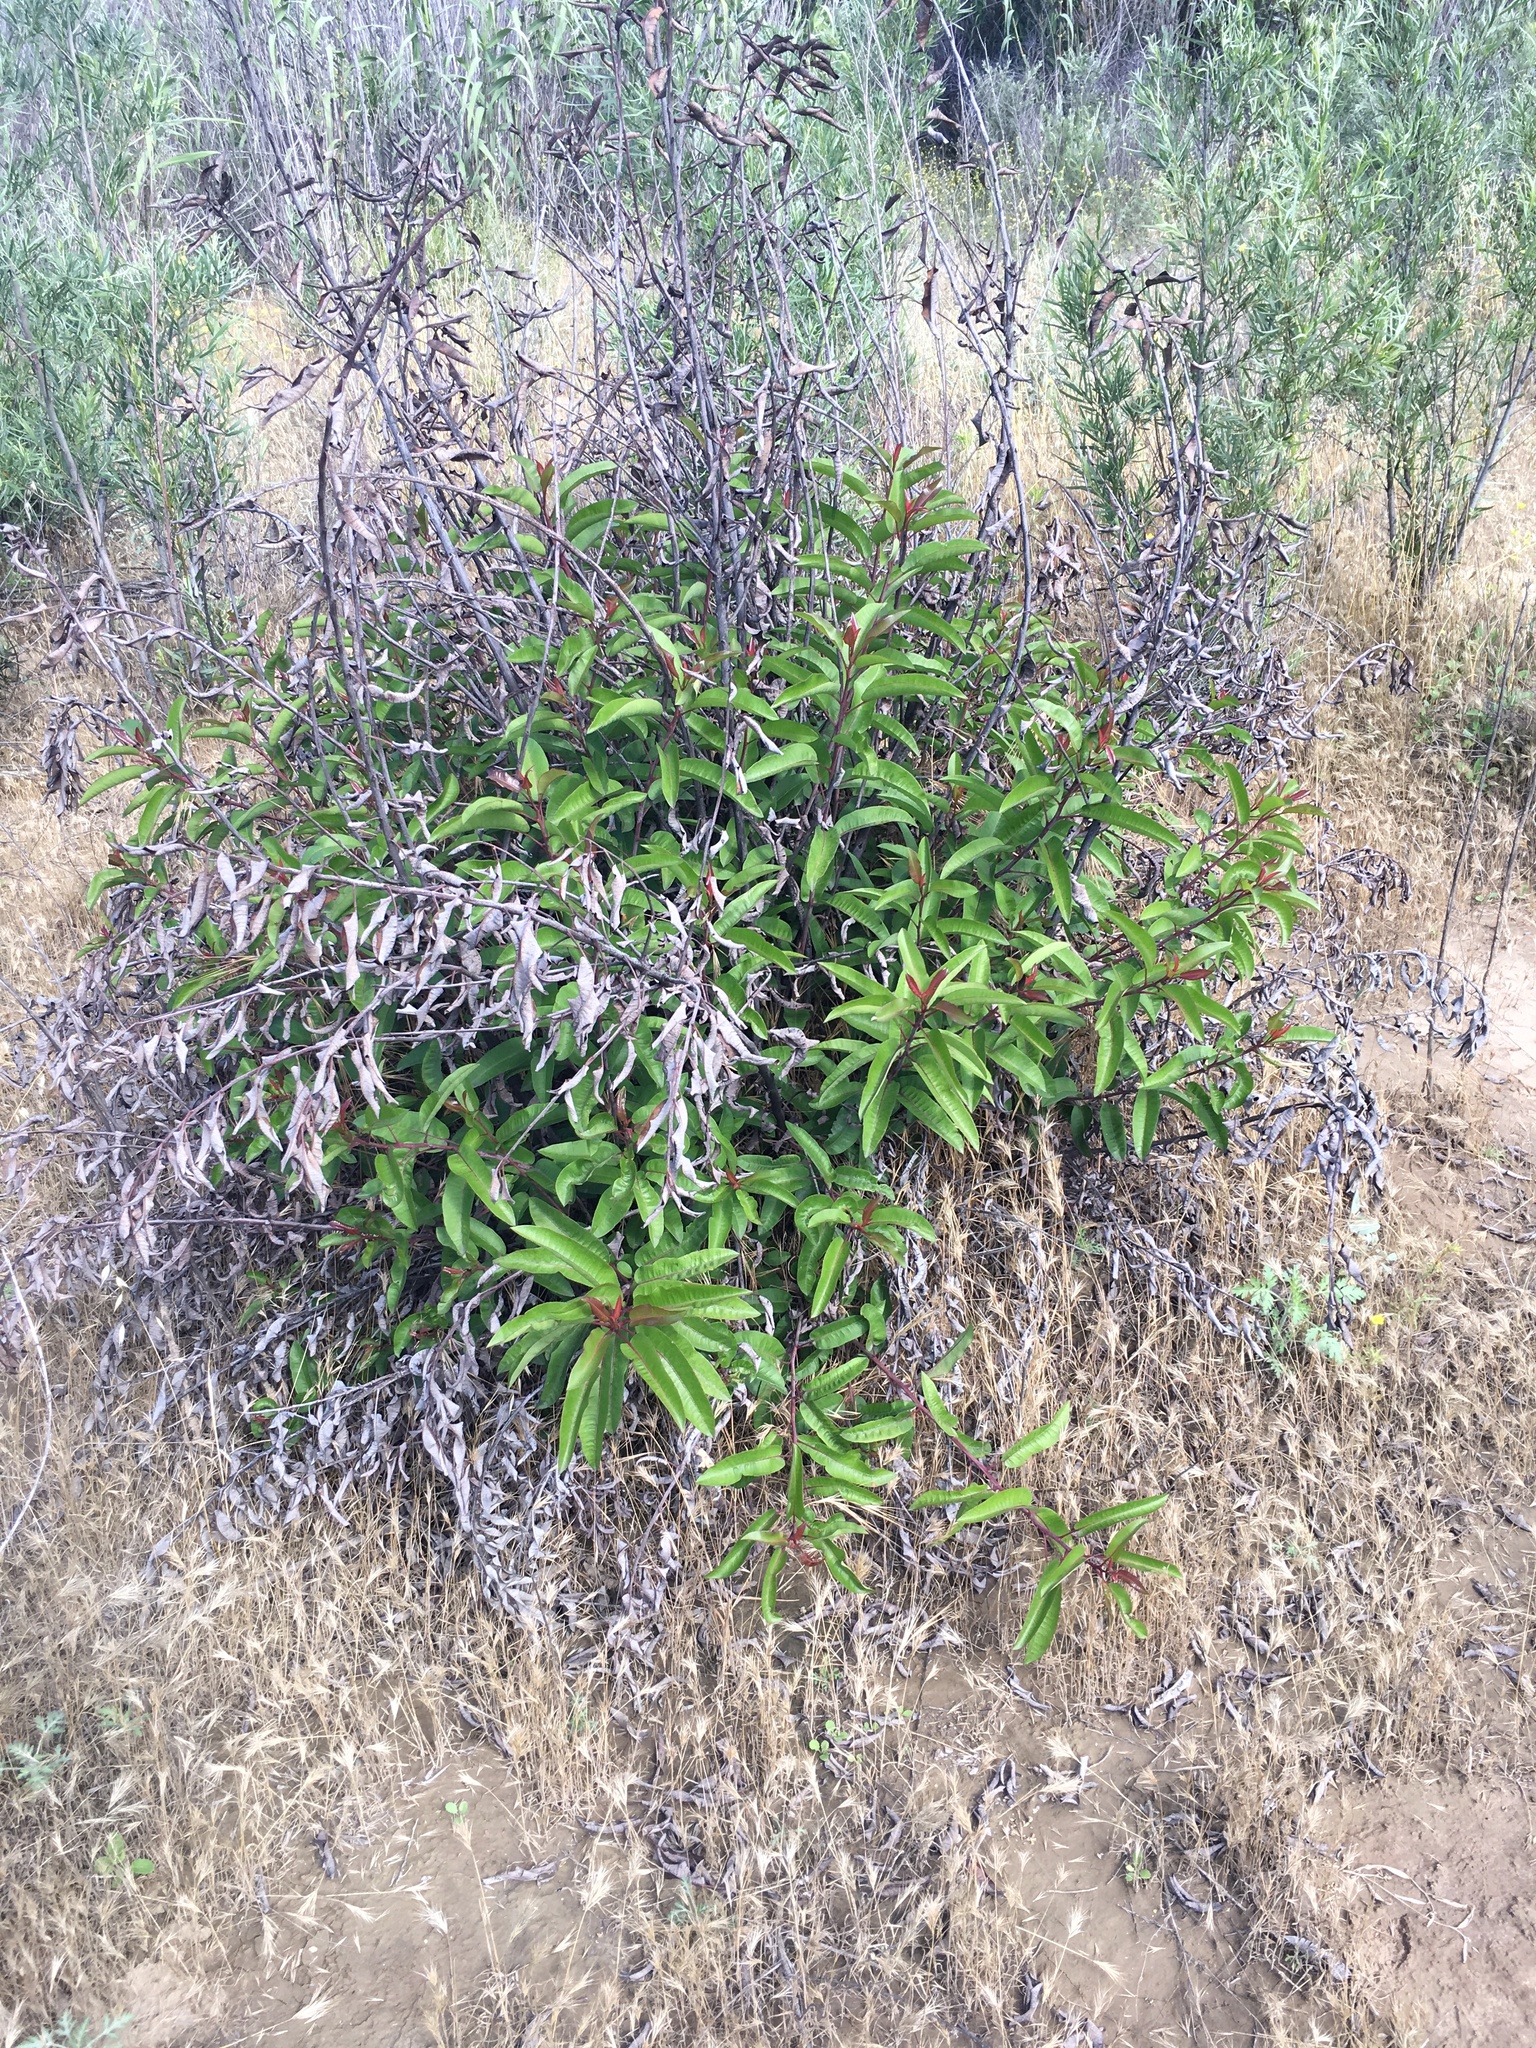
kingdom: Plantae
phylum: Tracheophyta
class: Magnoliopsida
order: Sapindales
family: Anacardiaceae
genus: Malosma
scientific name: Malosma laurina
